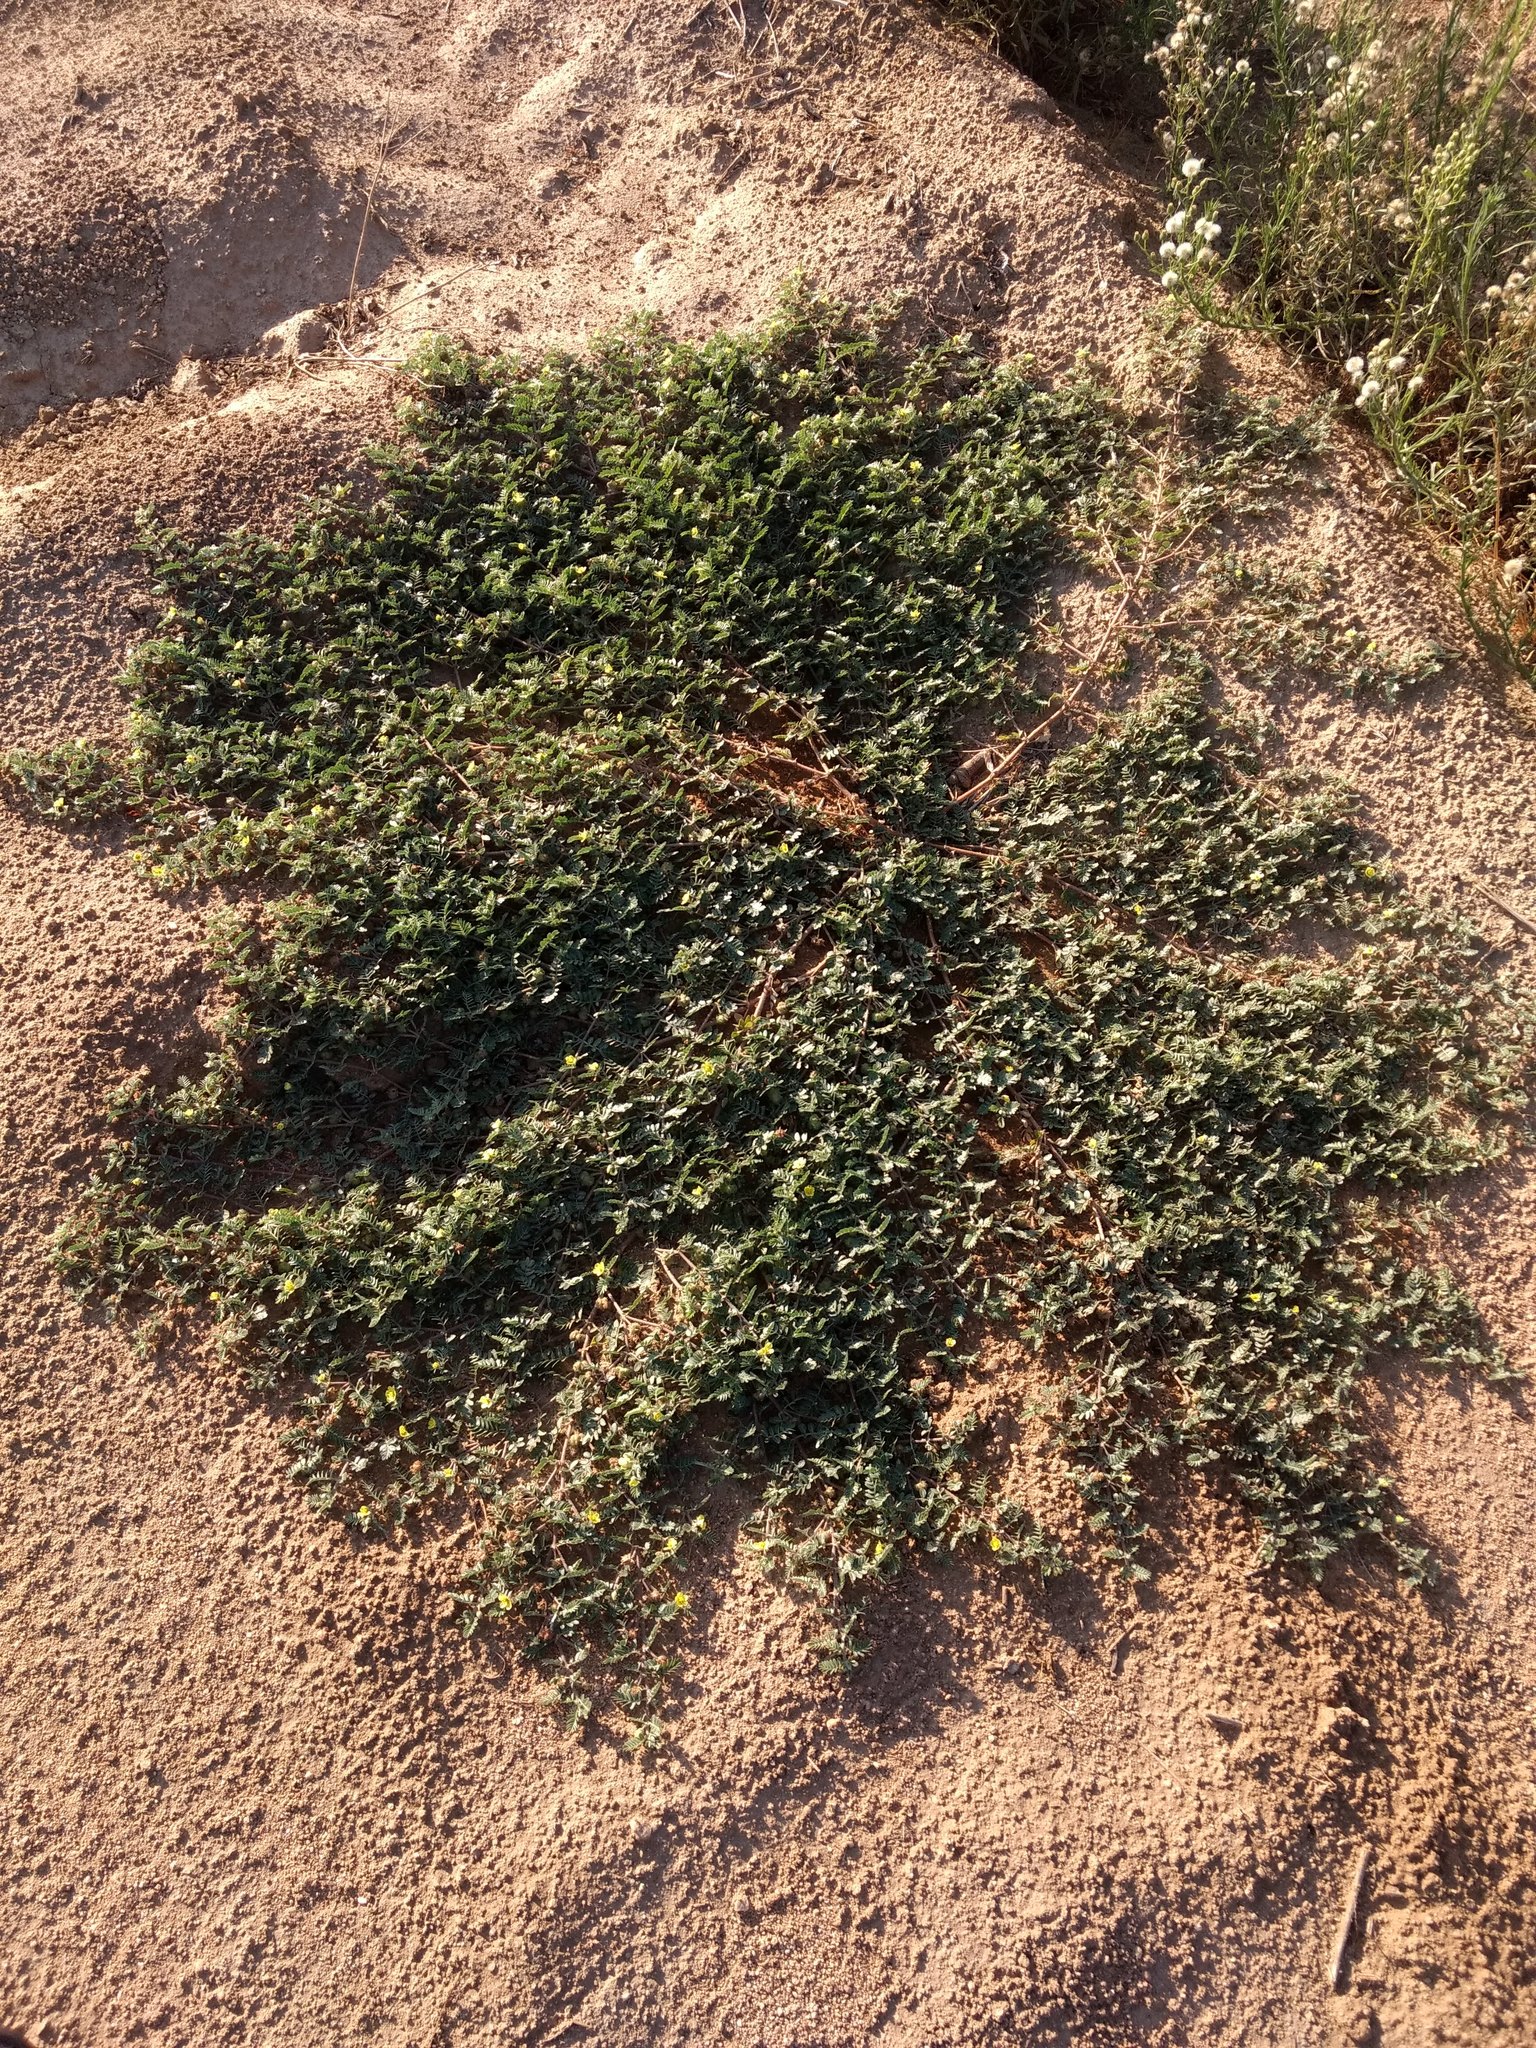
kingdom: Plantae
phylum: Tracheophyta
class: Magnoliopsida
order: Zygophyllales
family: Zygophyllaceae
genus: Tribulus
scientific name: Tribulus terrestris
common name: Puncturevine
